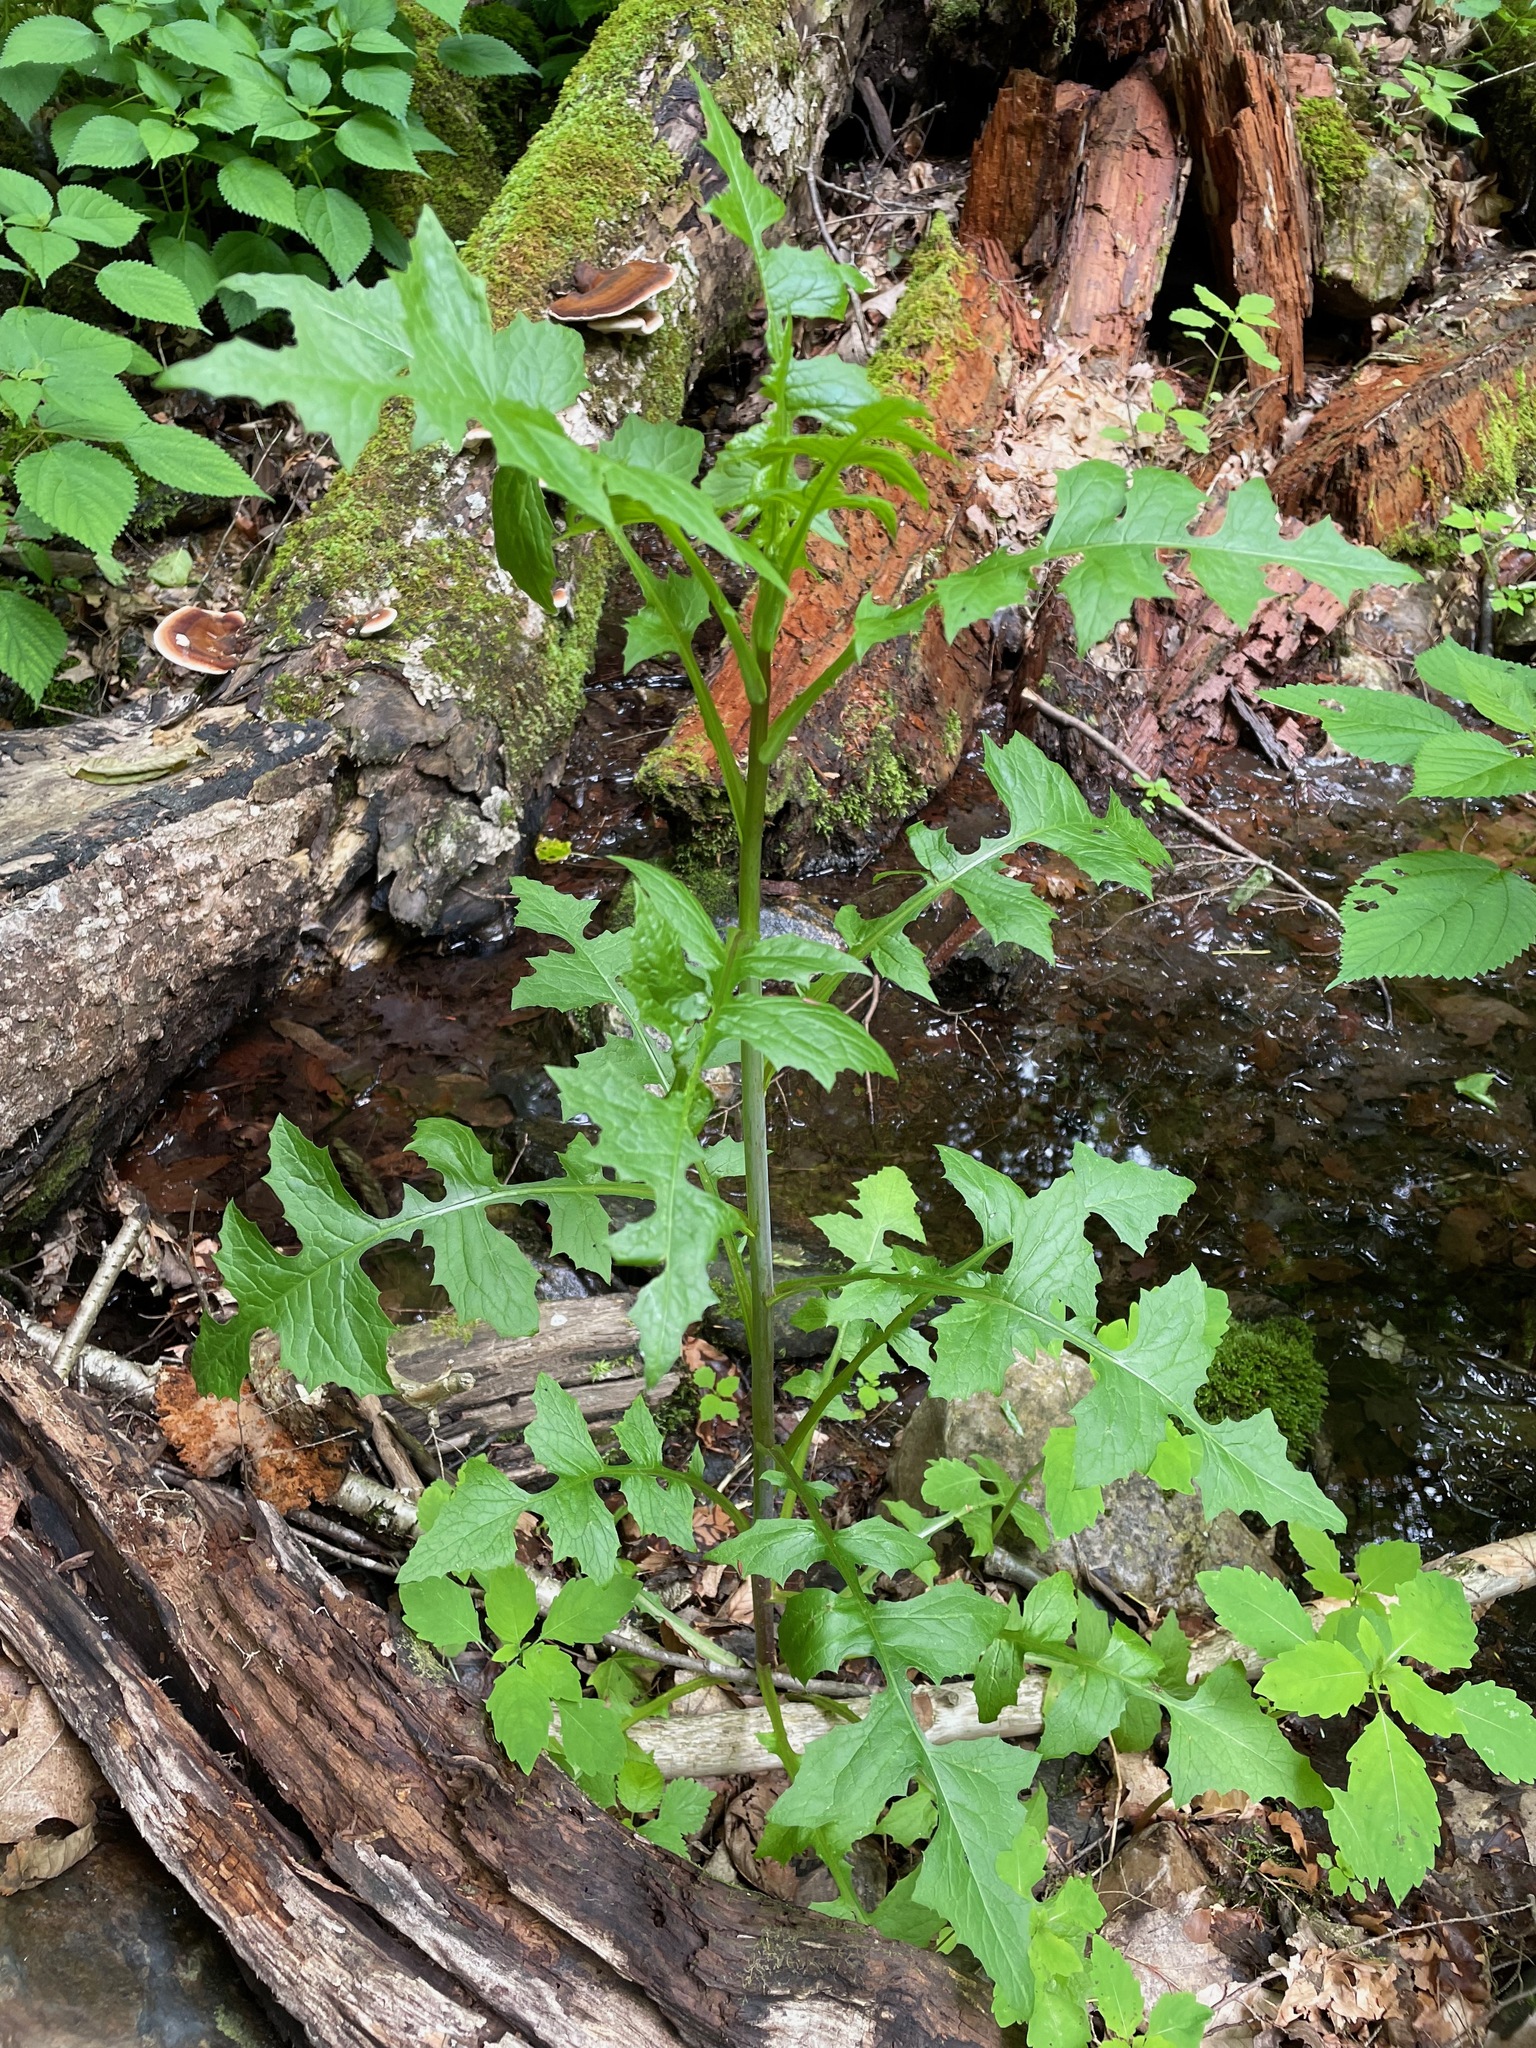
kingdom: Plantae
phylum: Tracheophyta
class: Magnoliopsida
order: Asterales
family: Asteraceae
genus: Lactuca
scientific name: Lactuca biennis
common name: Blue wood lettuce
